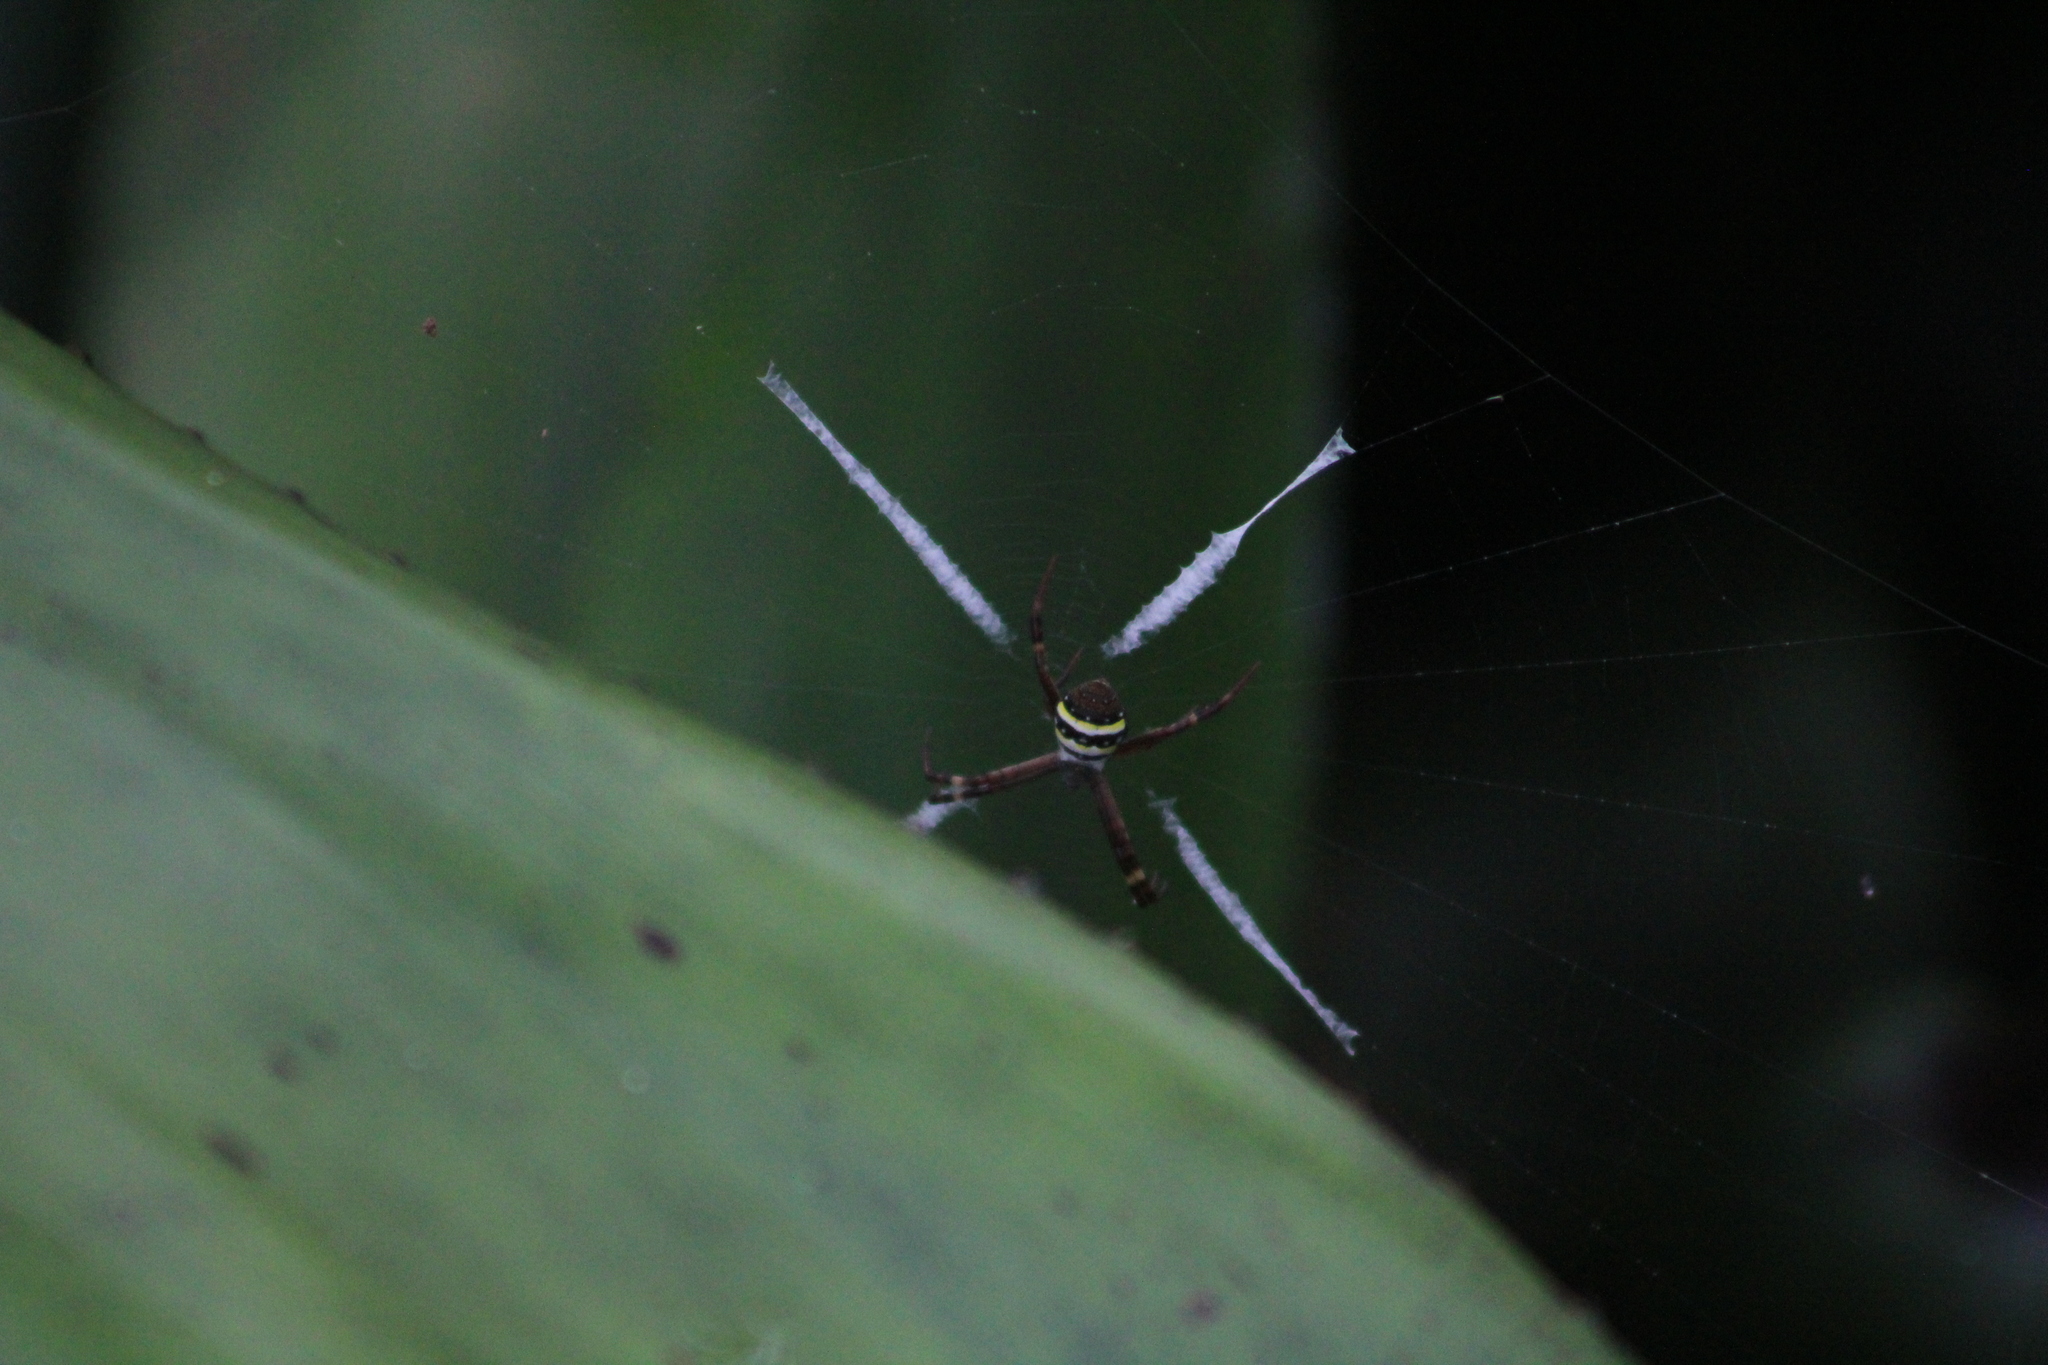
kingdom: Animalia
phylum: Arthropoda
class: Arachnida
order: Araneae
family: Araneidae
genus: Argiope
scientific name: Argiope keyserlingi
